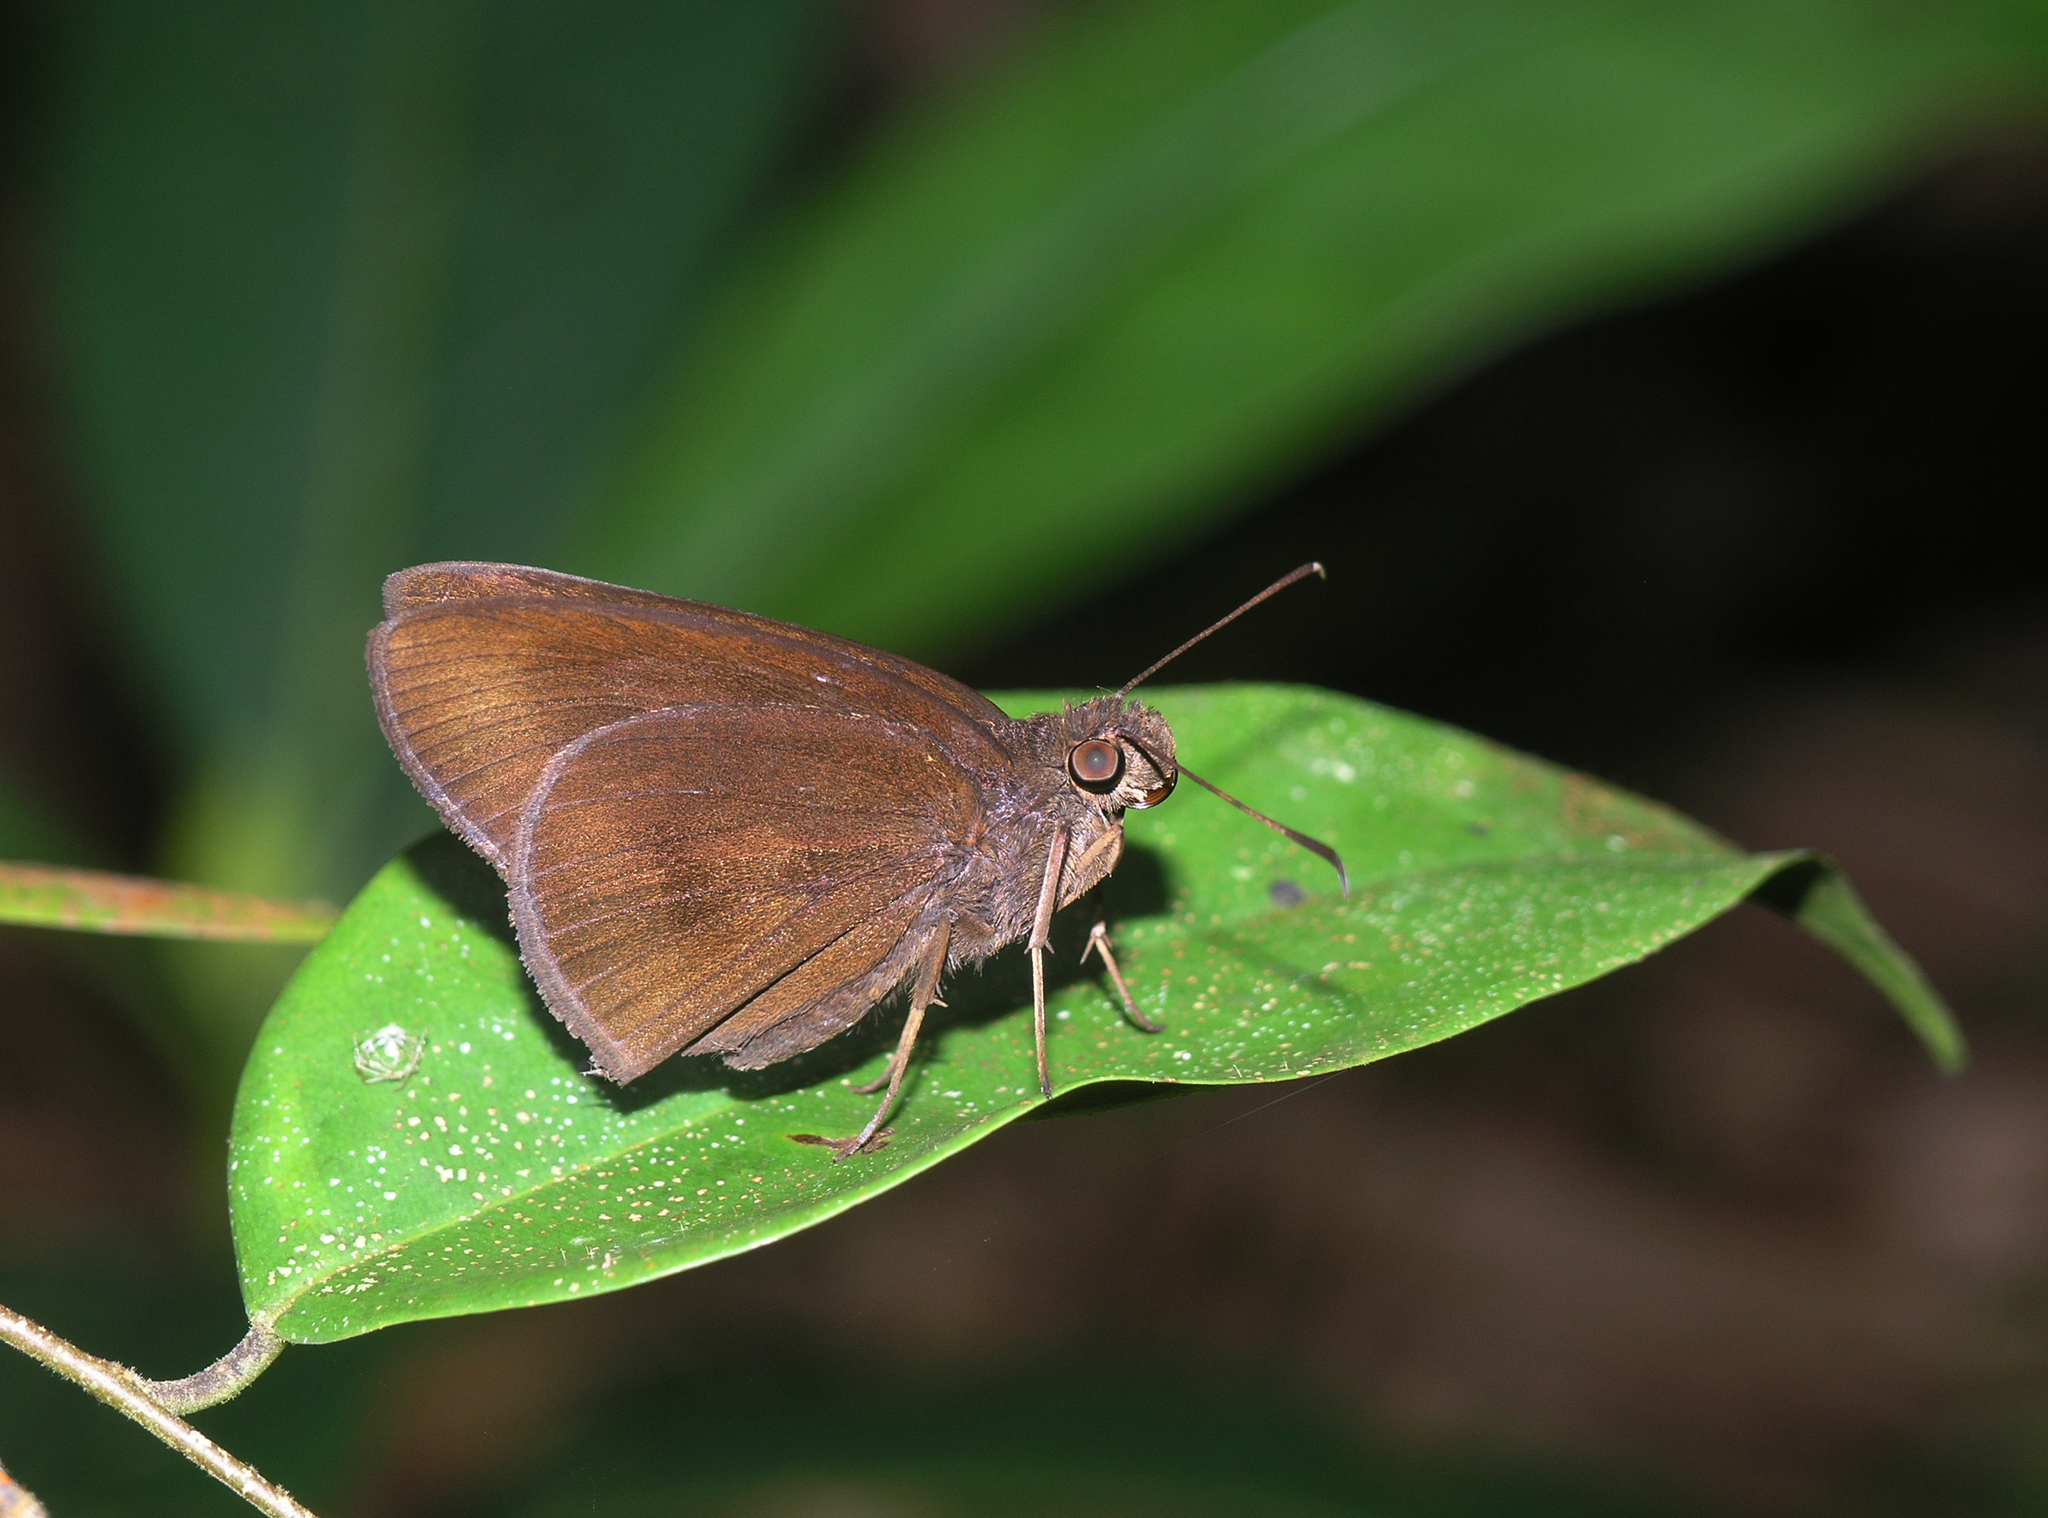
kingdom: Animalia
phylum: Arthropoda
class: Insecta
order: Lepidoptera
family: Hesperiidae
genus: Ancistroides
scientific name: Ancistroides nigrita
